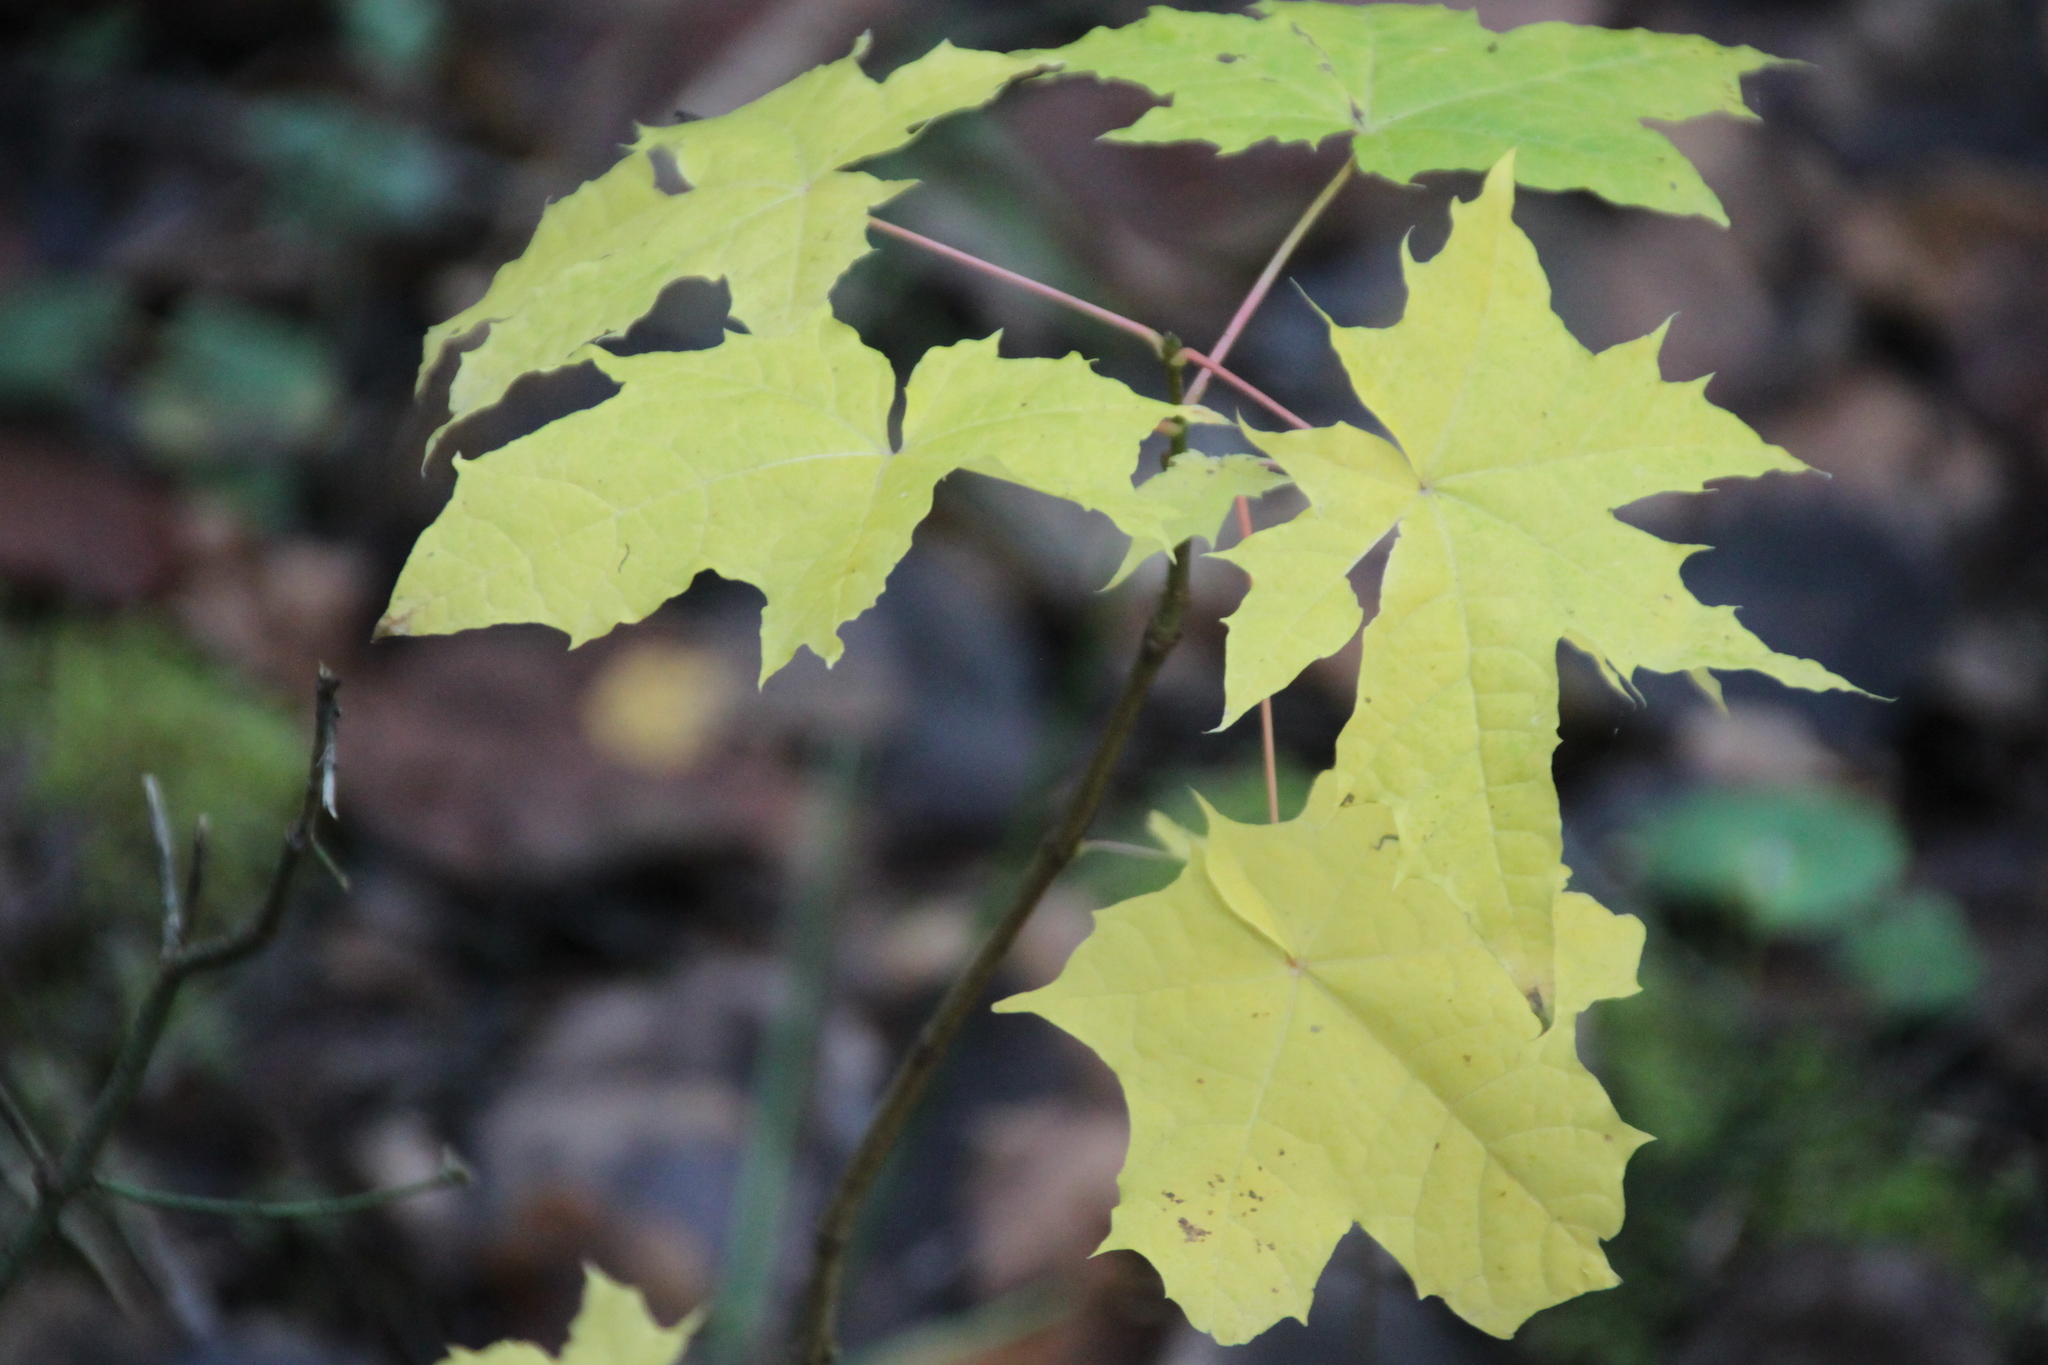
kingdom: Plantae
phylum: Tracheophyta
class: Magnoliopsida
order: Sapindales
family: Sapindaceae
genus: Acer
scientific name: Acer platanoides
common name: Norway maple
